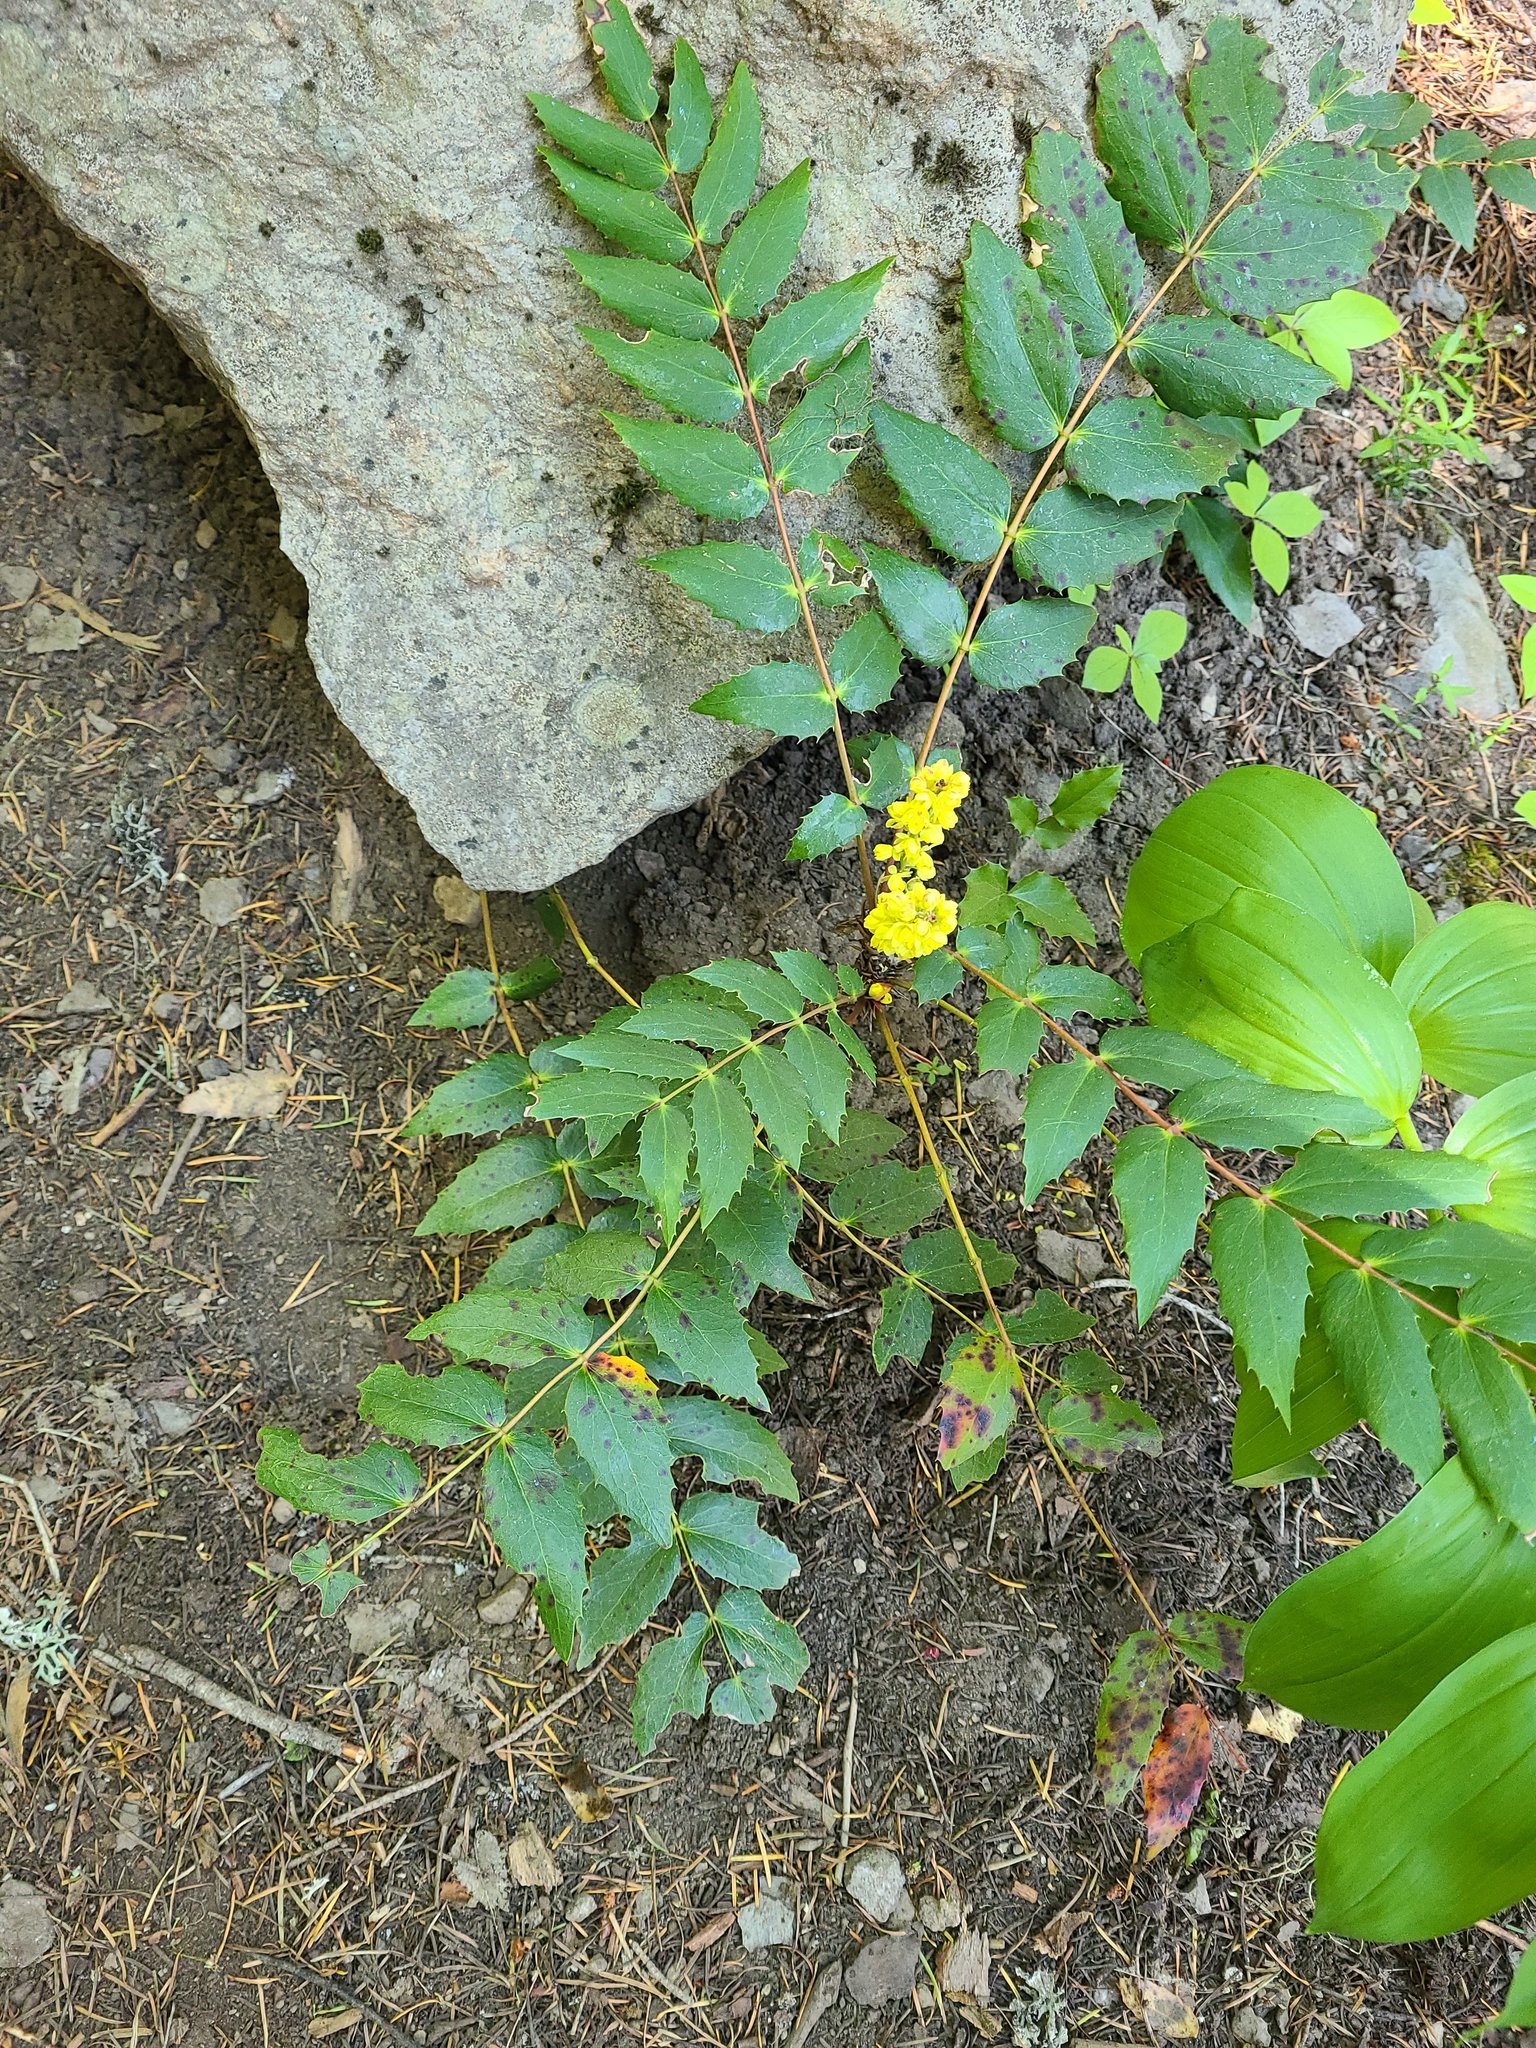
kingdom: Plantae
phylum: Tracheophyta
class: Magnoliopsida
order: Ranunculales
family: Berberidaceae
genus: Mahonia
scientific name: Mahonia nervosa
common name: Cascade oregon-grape
